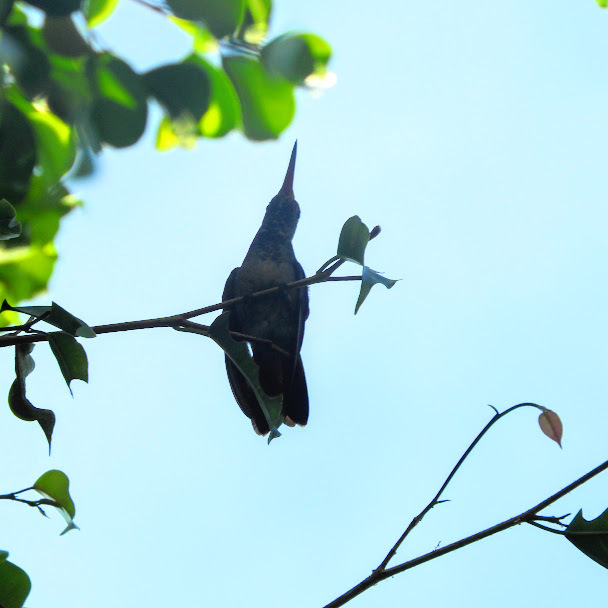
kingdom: Animalia
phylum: Chordata
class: Aves
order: Apodiformes
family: Trochilidae
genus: Amazilia
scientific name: Amazilia tzacatl
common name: Rufous-tailed hummingbird
